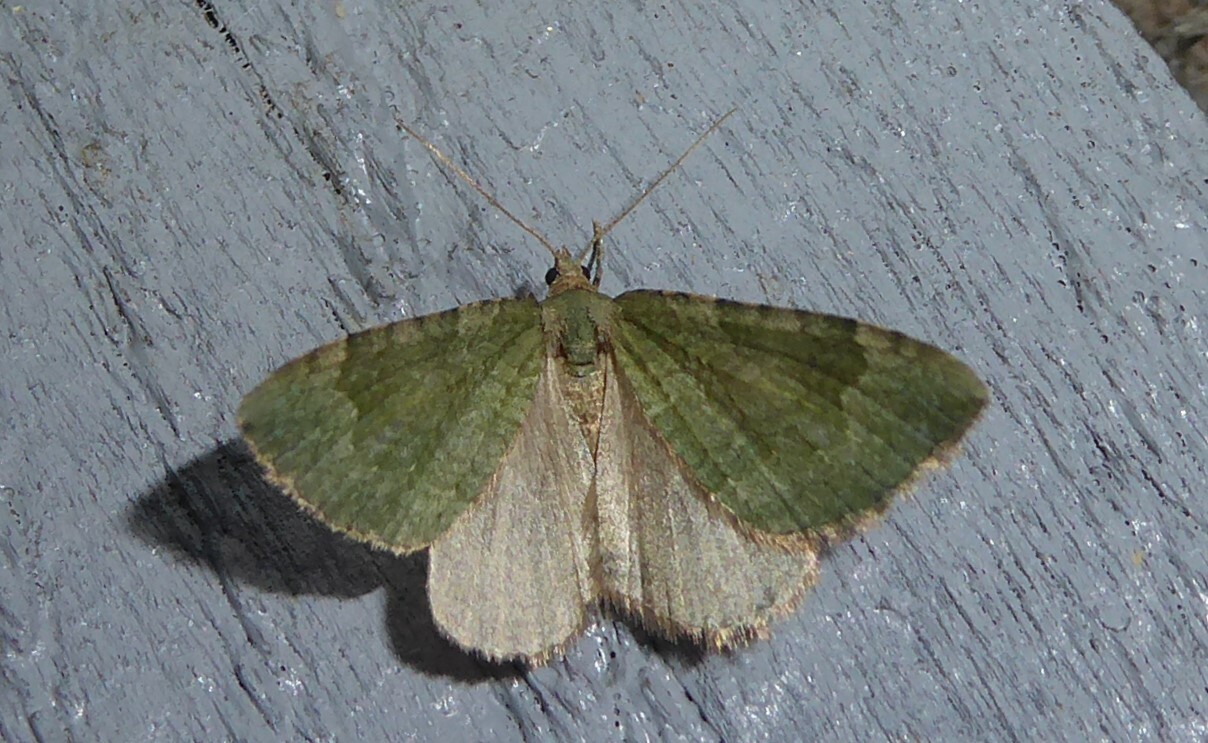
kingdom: Animalia
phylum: Arthropoda
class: Insecta
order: Lepidoptera
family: Geometridae
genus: Epyaxa
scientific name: Epyaxa rosearia
